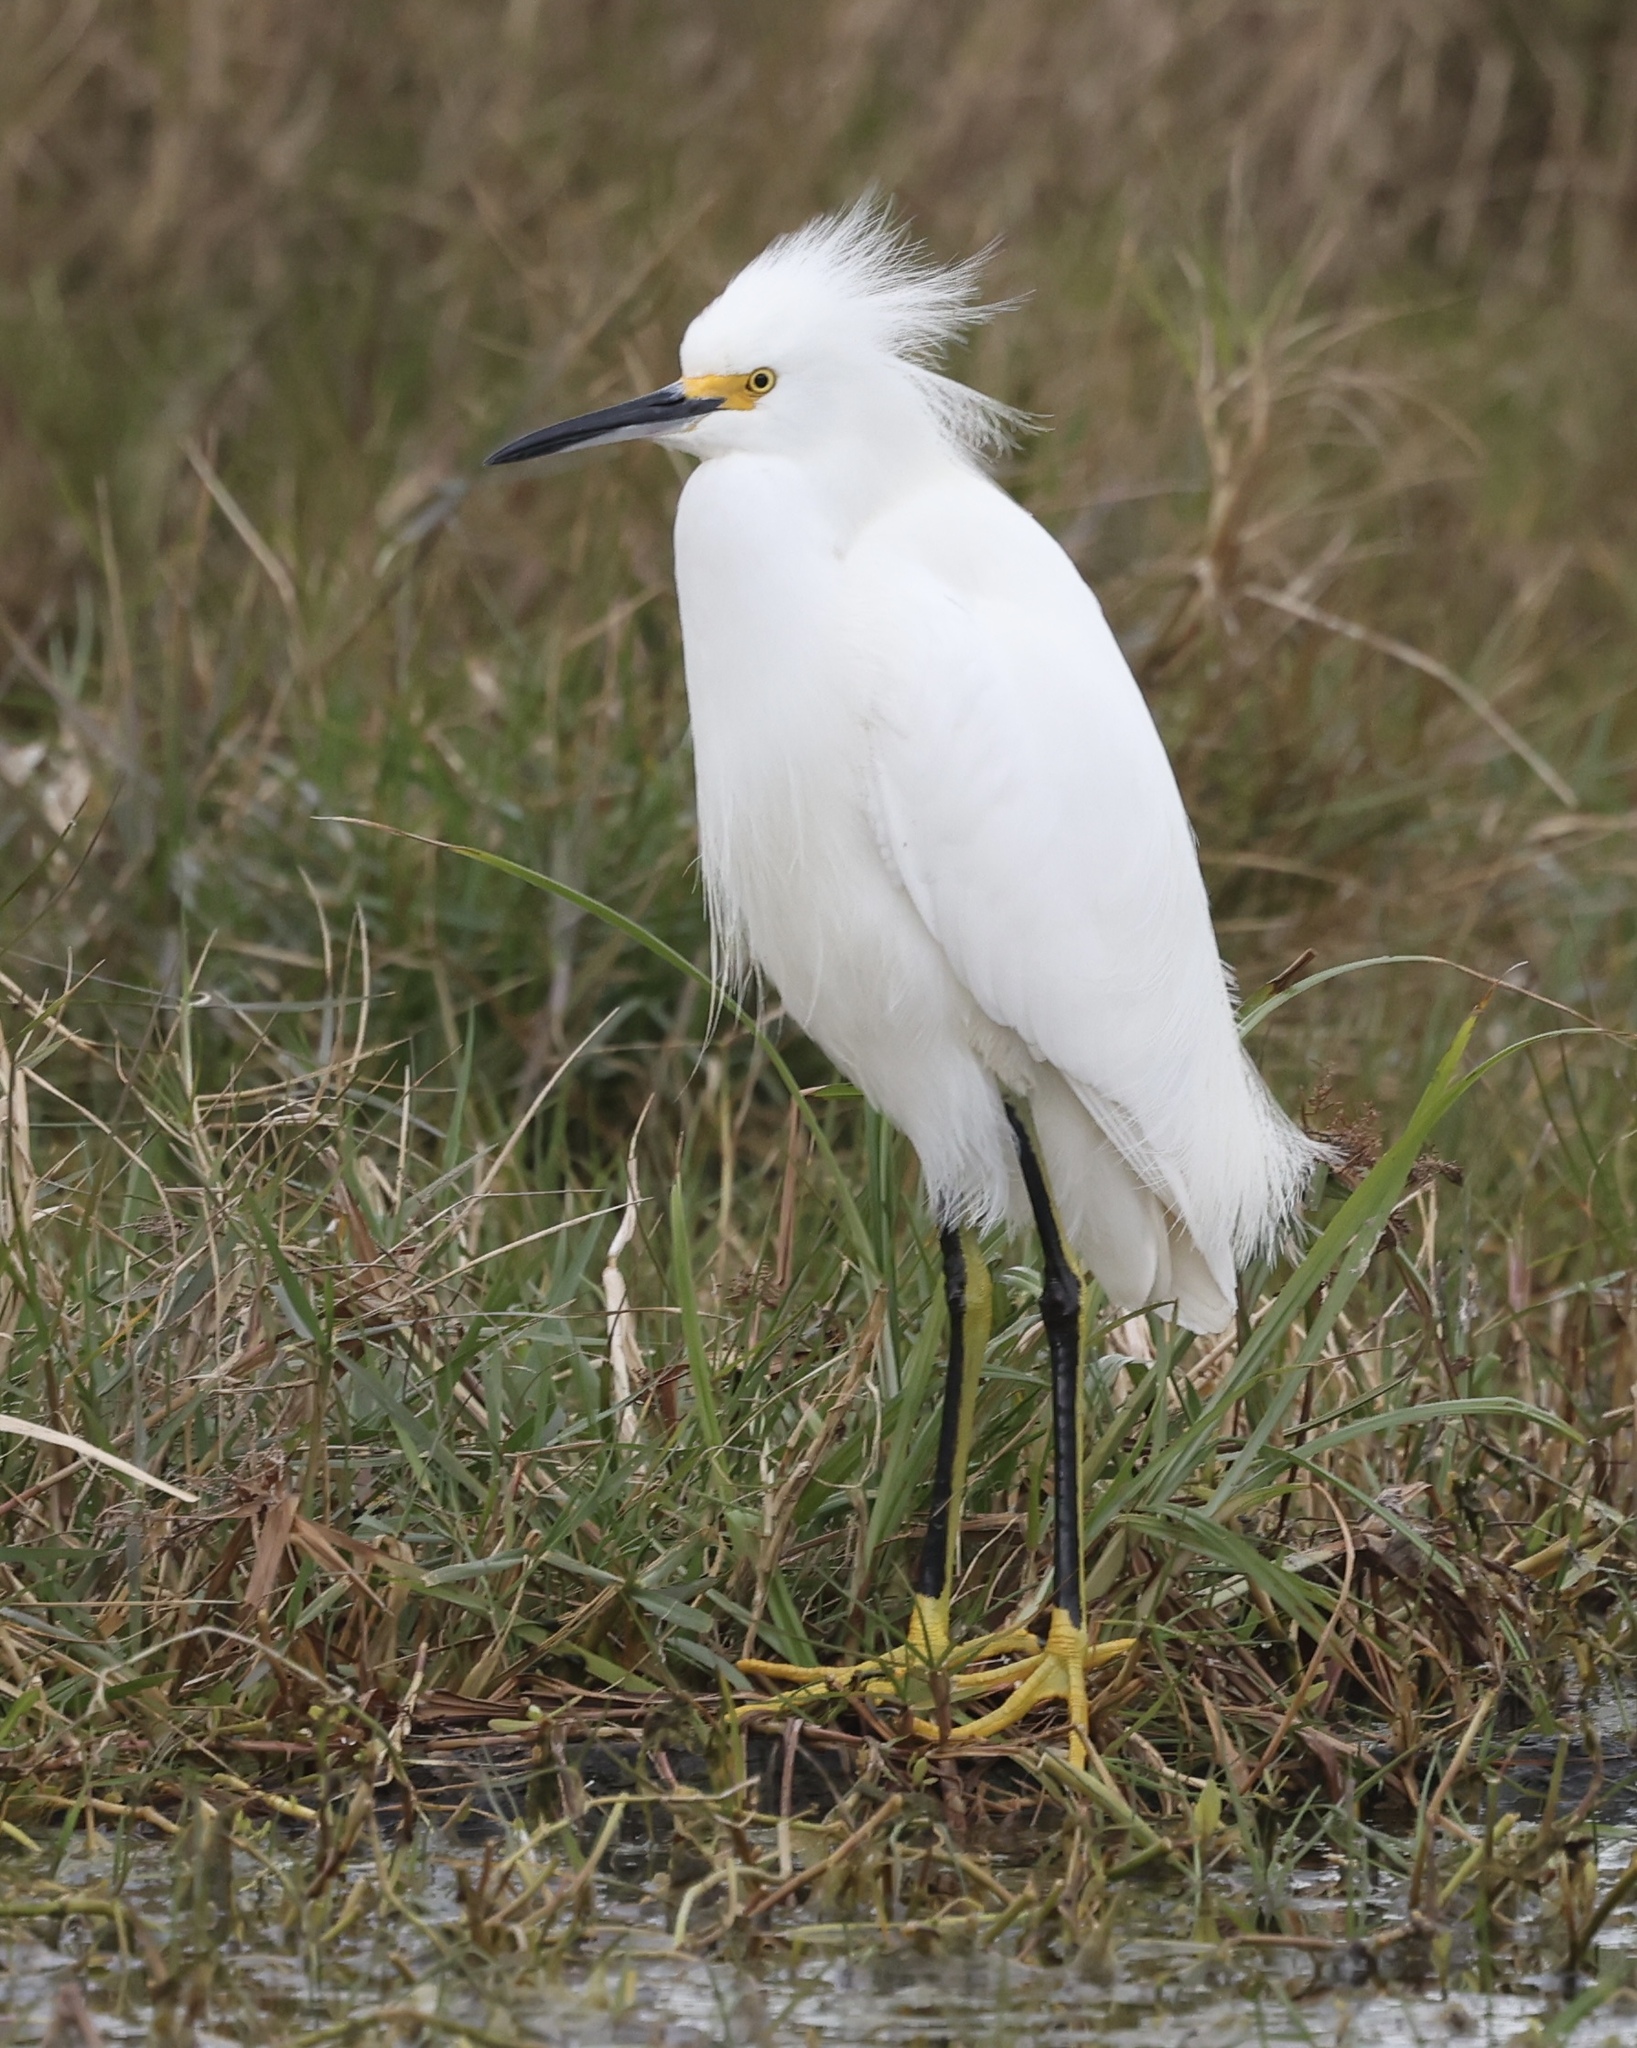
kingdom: Animalia
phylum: Chordata
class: Aves
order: Pelecaniformes
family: Ardeidae
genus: Egretta
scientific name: Egretta thula
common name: Snowy egret
